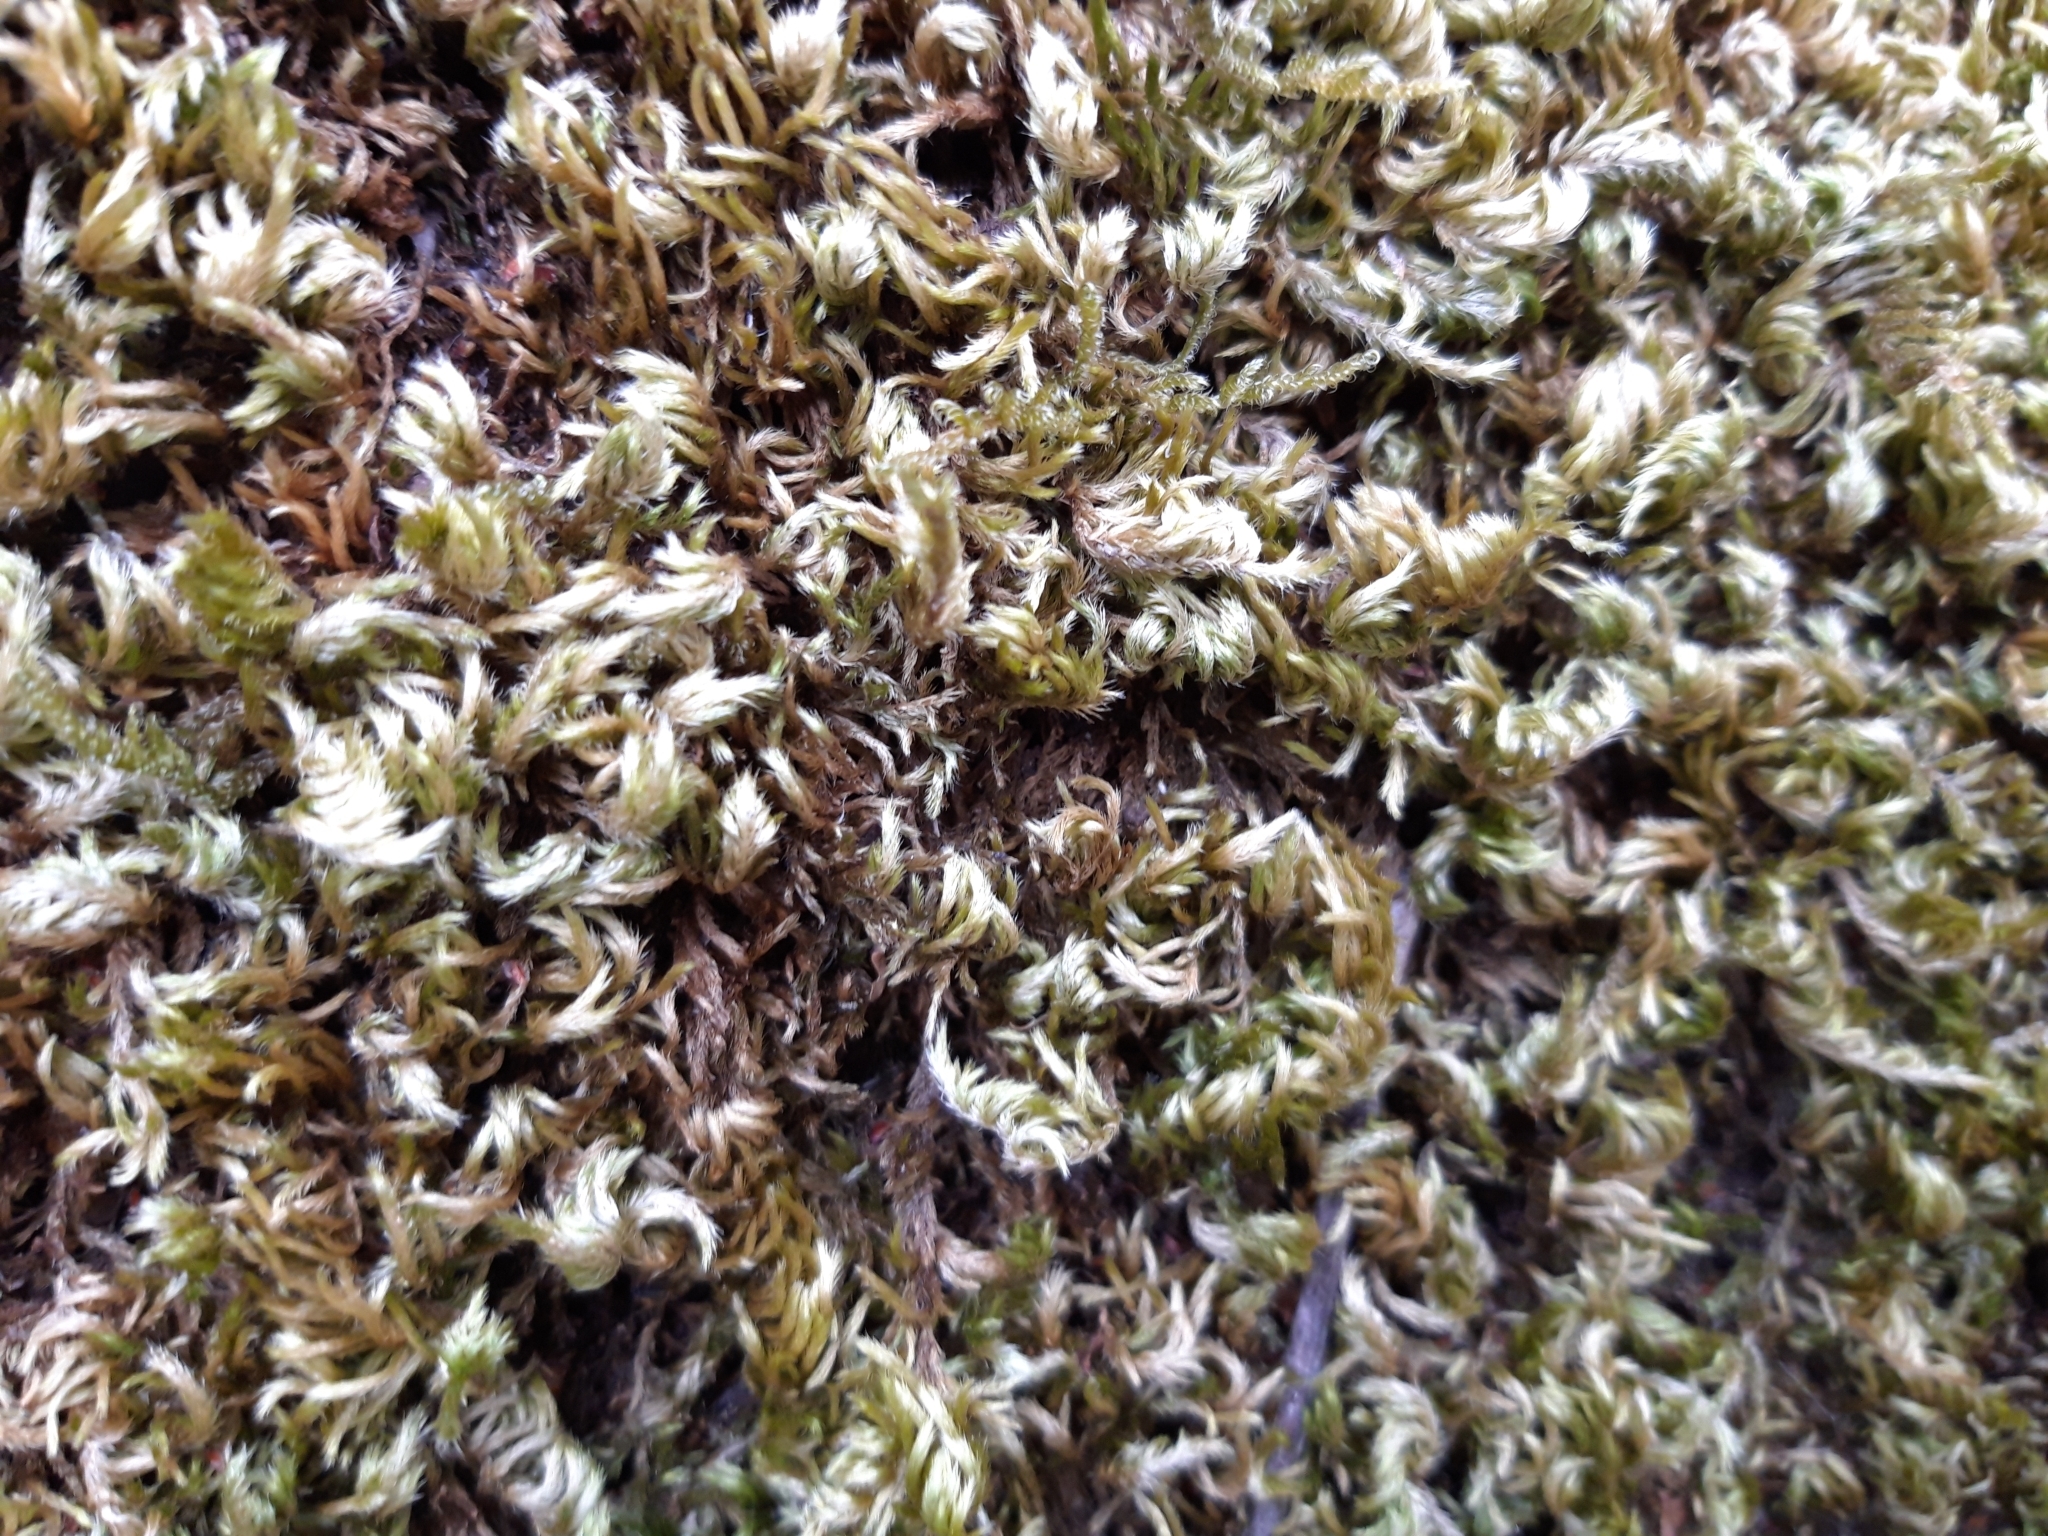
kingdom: Plantae
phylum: Bryophyta
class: Bryopsida
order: Hypnales
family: Brachytheciaceae
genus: Homalothecium
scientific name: Homalothecium sericeum
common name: Silky wall feather-moss
